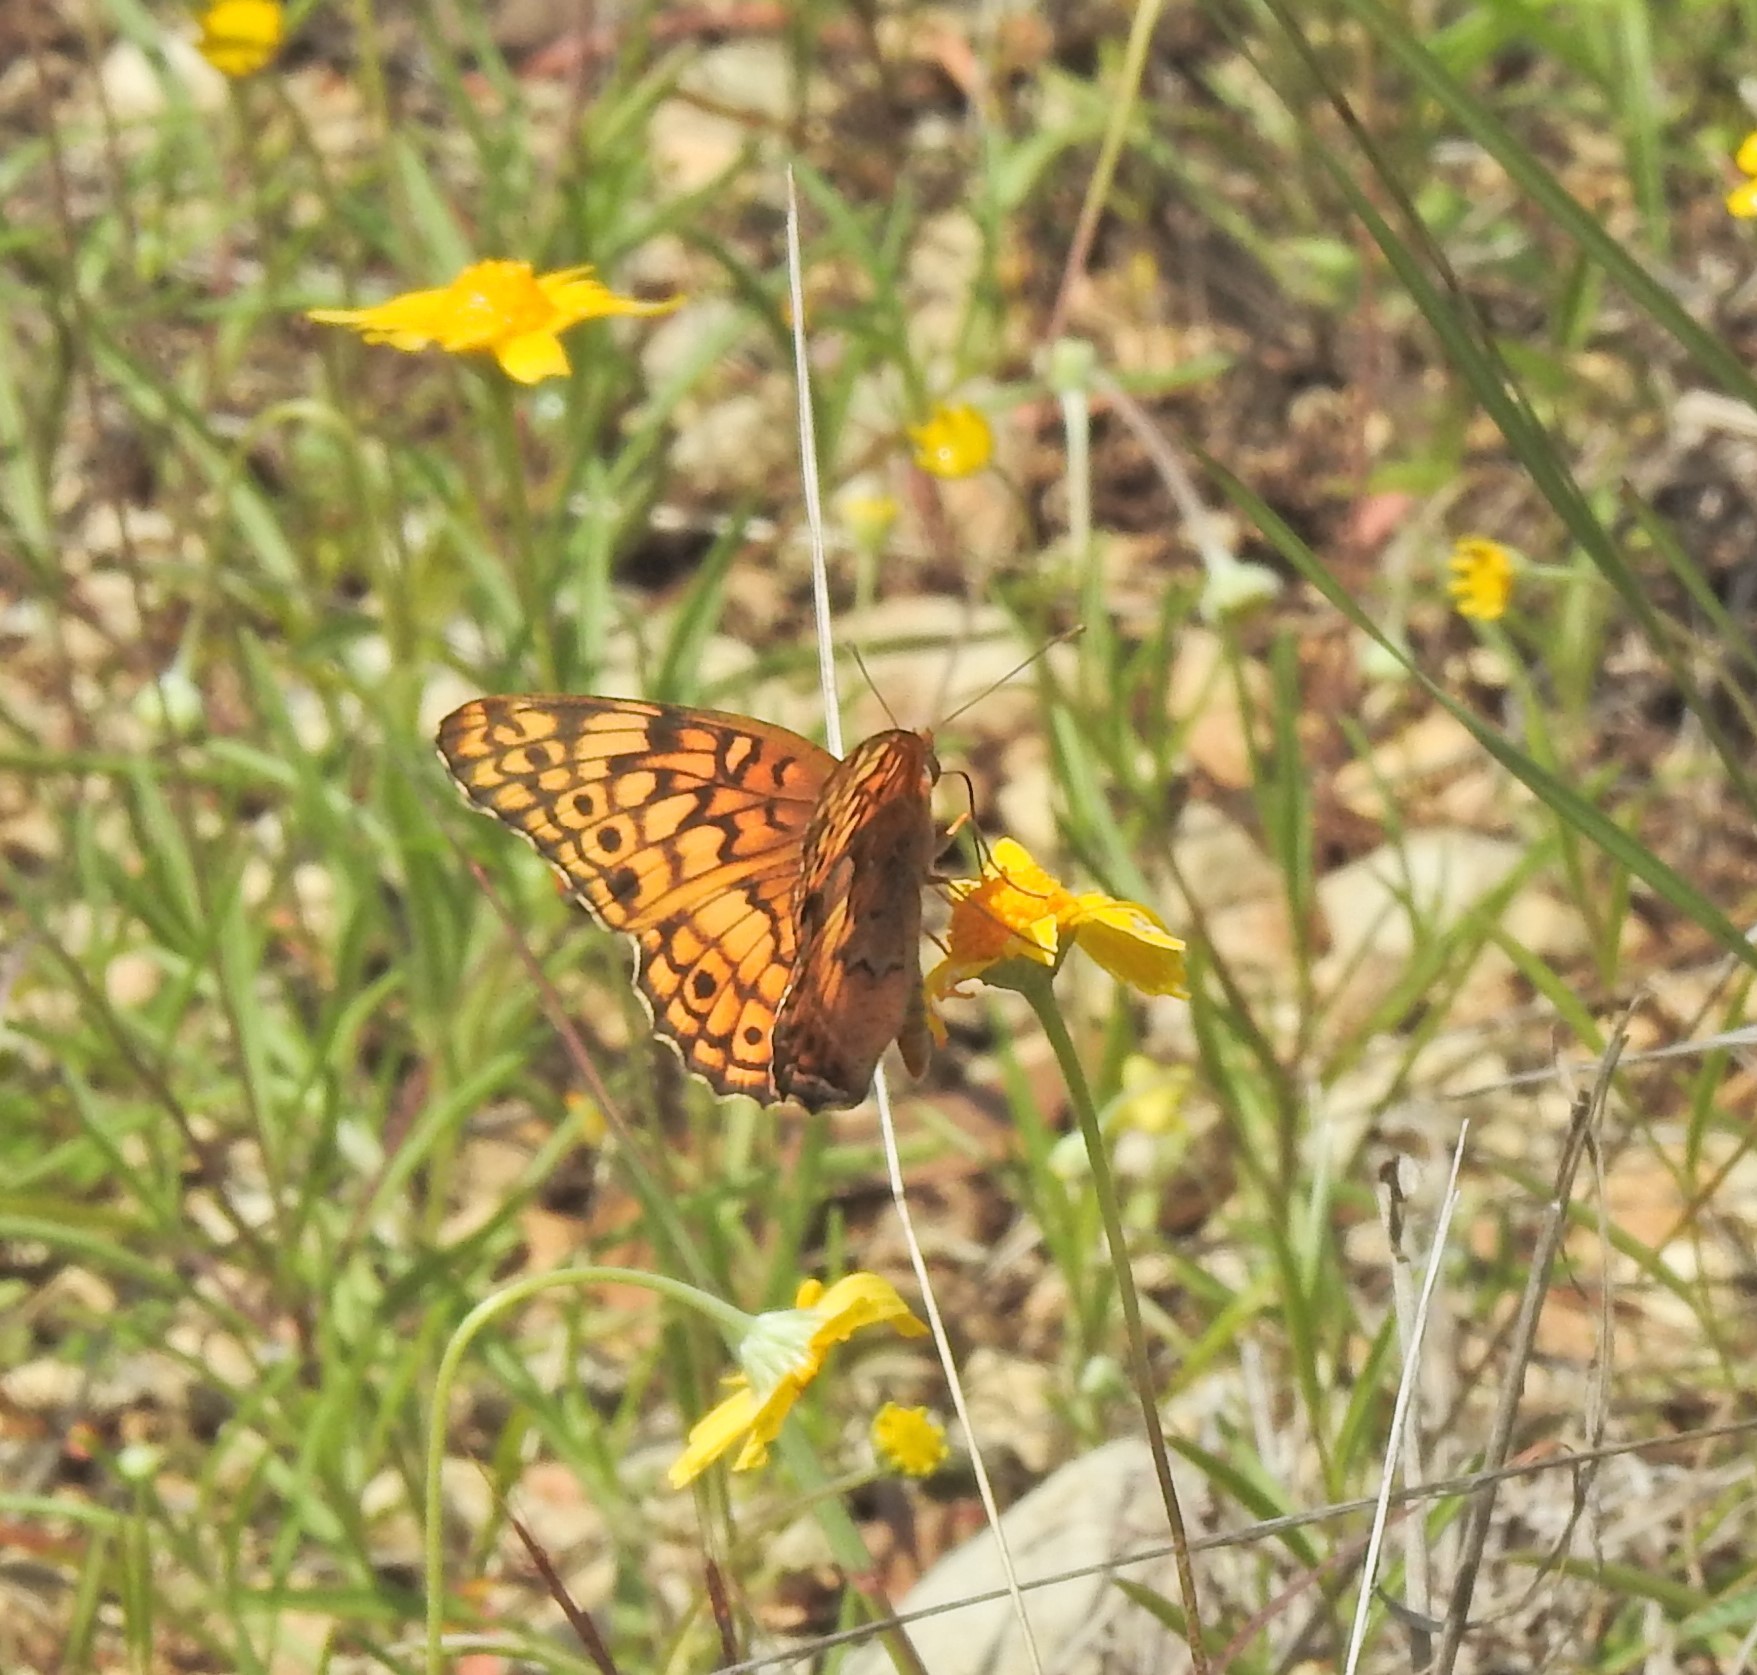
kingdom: Animalia
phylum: Arthropoda
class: Insecta
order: Lepidoptera
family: Nymphalidae
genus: Euptoieta
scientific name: Euptoieta claudia
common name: Variegated fritillary
